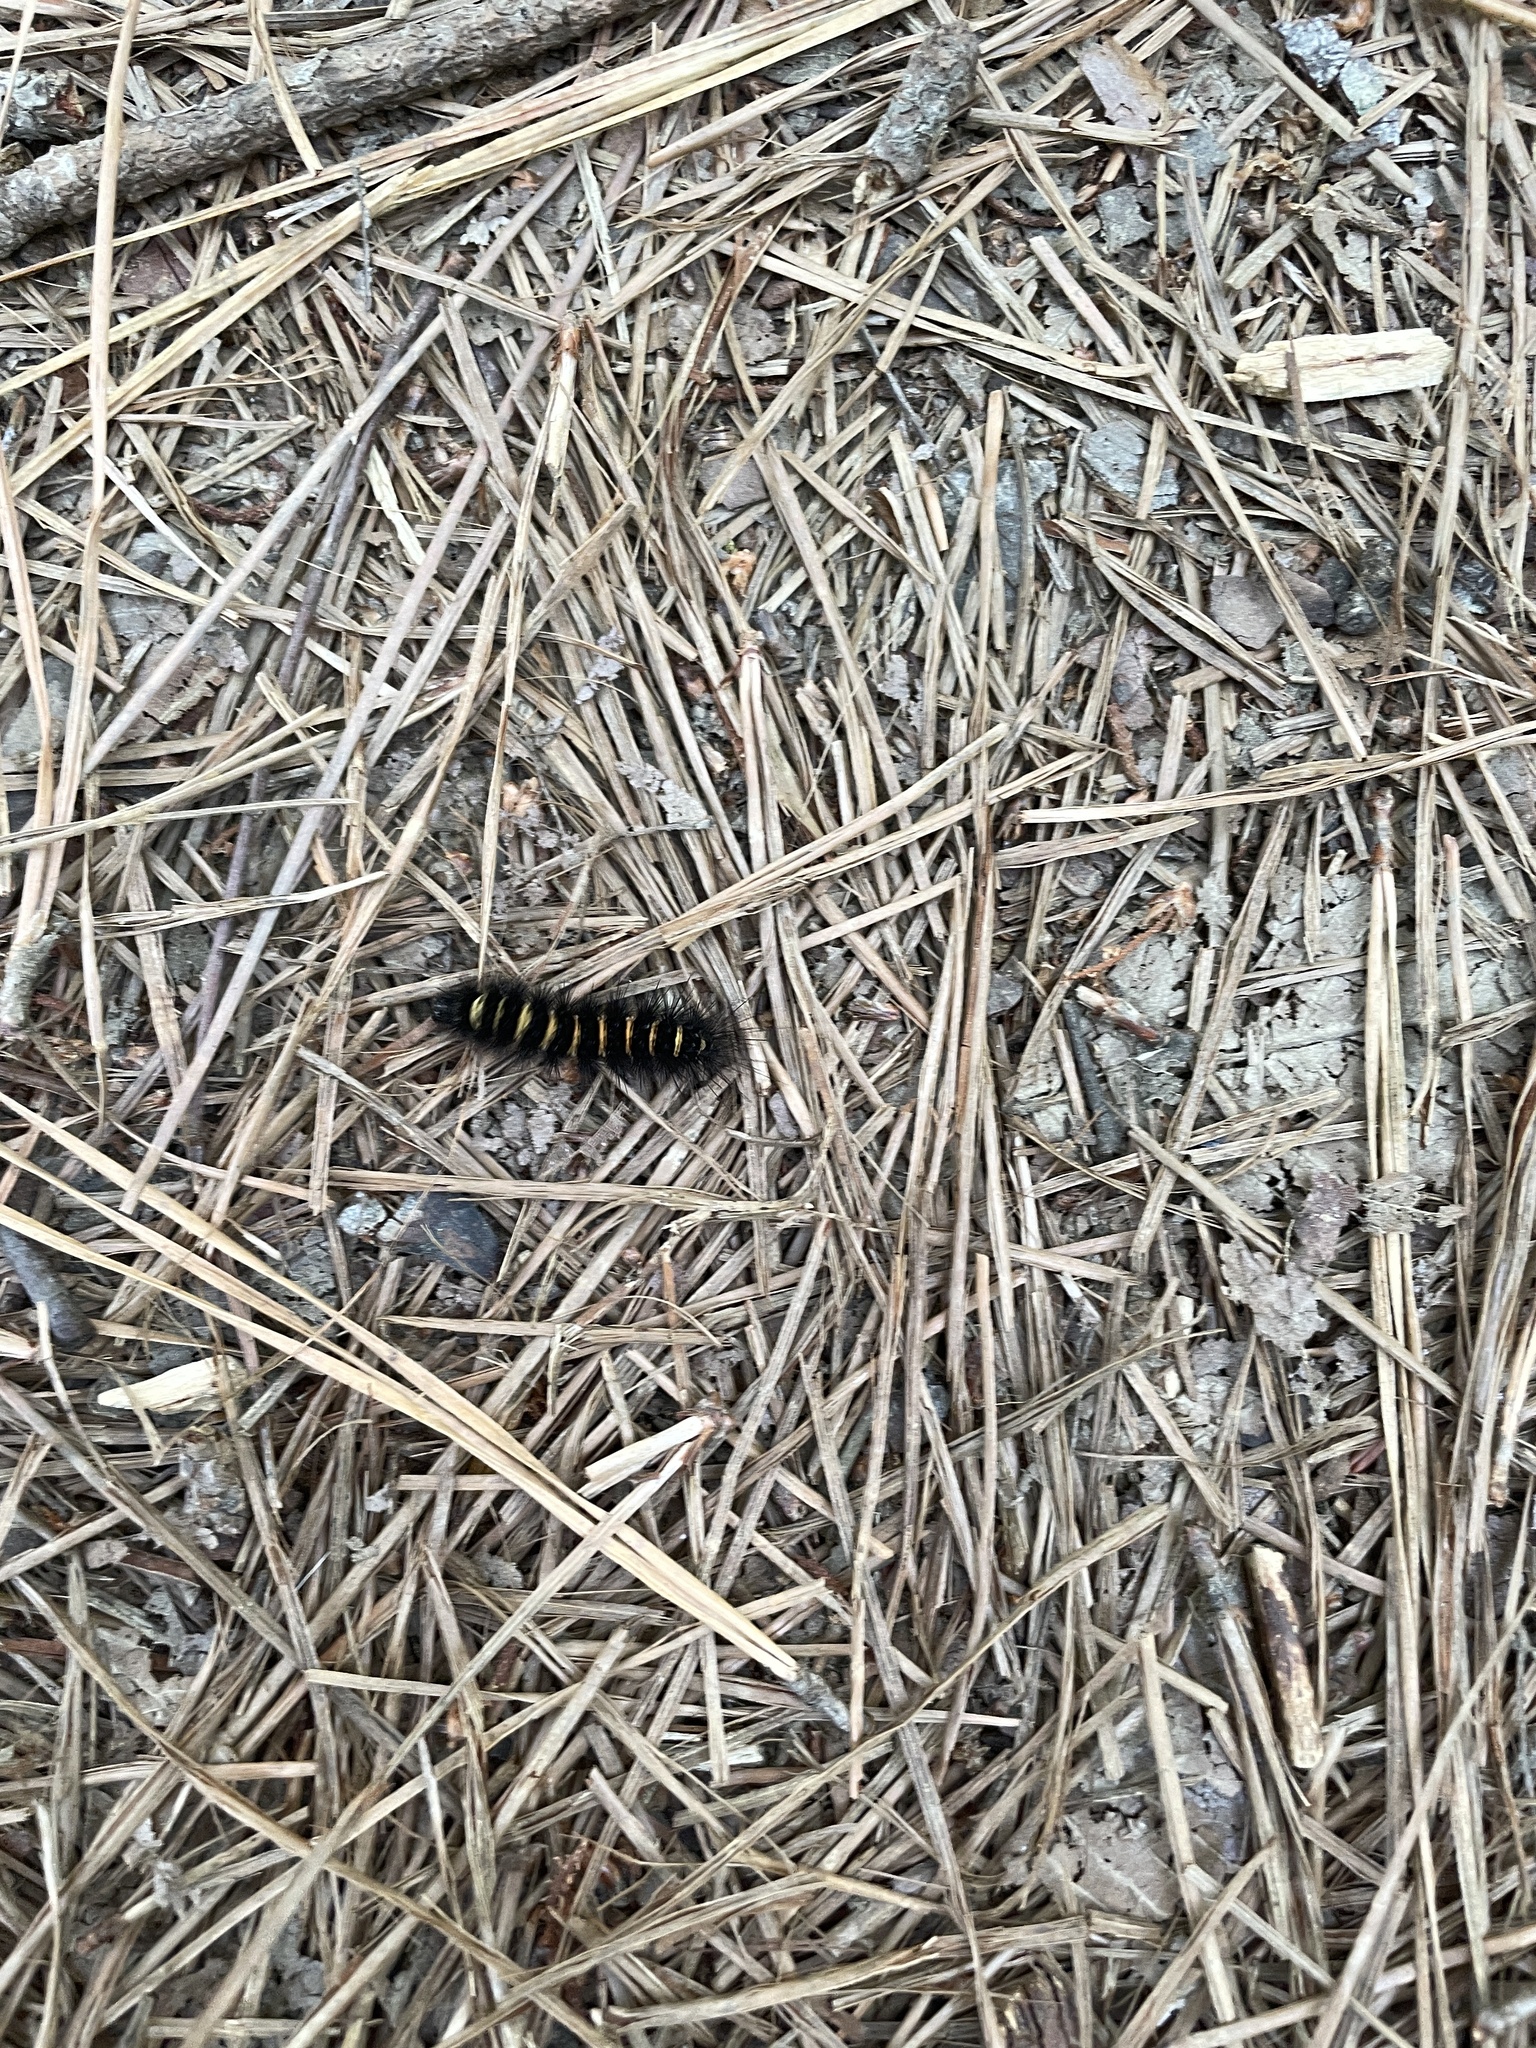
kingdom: Animalia
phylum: Arthropoda
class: Insecta
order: Lepidoptera
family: Erebidae
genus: Spilosoma
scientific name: Spilosoma congrua
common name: Agreeable tiger moth
